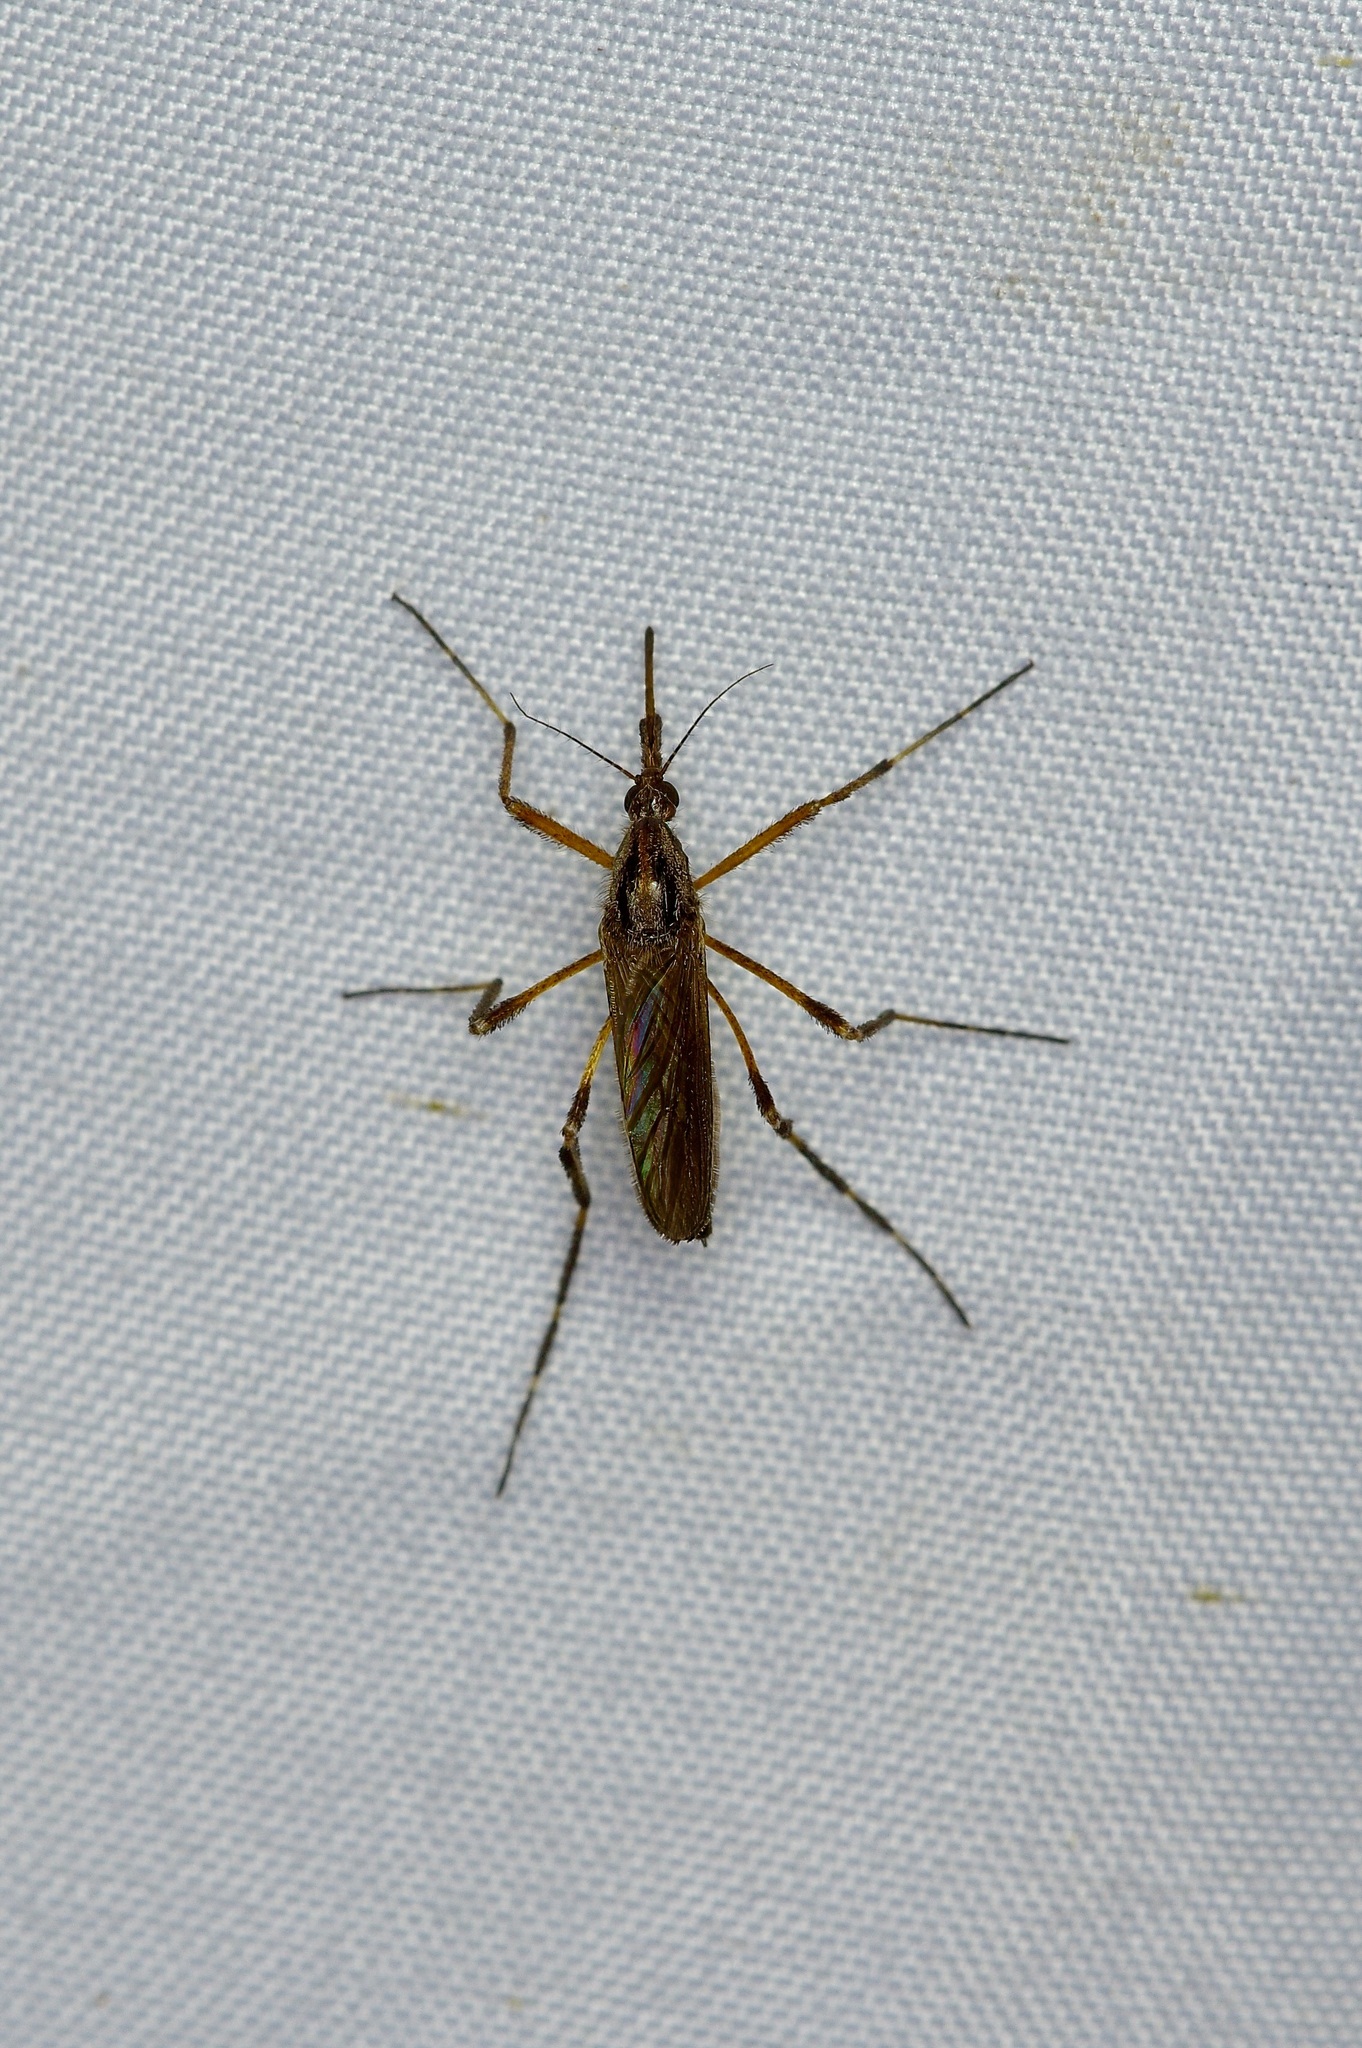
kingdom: Animalia
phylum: Arthropoda
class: Insecta
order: Diptera
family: Culicidae
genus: Psorophora
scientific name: Psorophora ciliata
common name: Gallinipper
